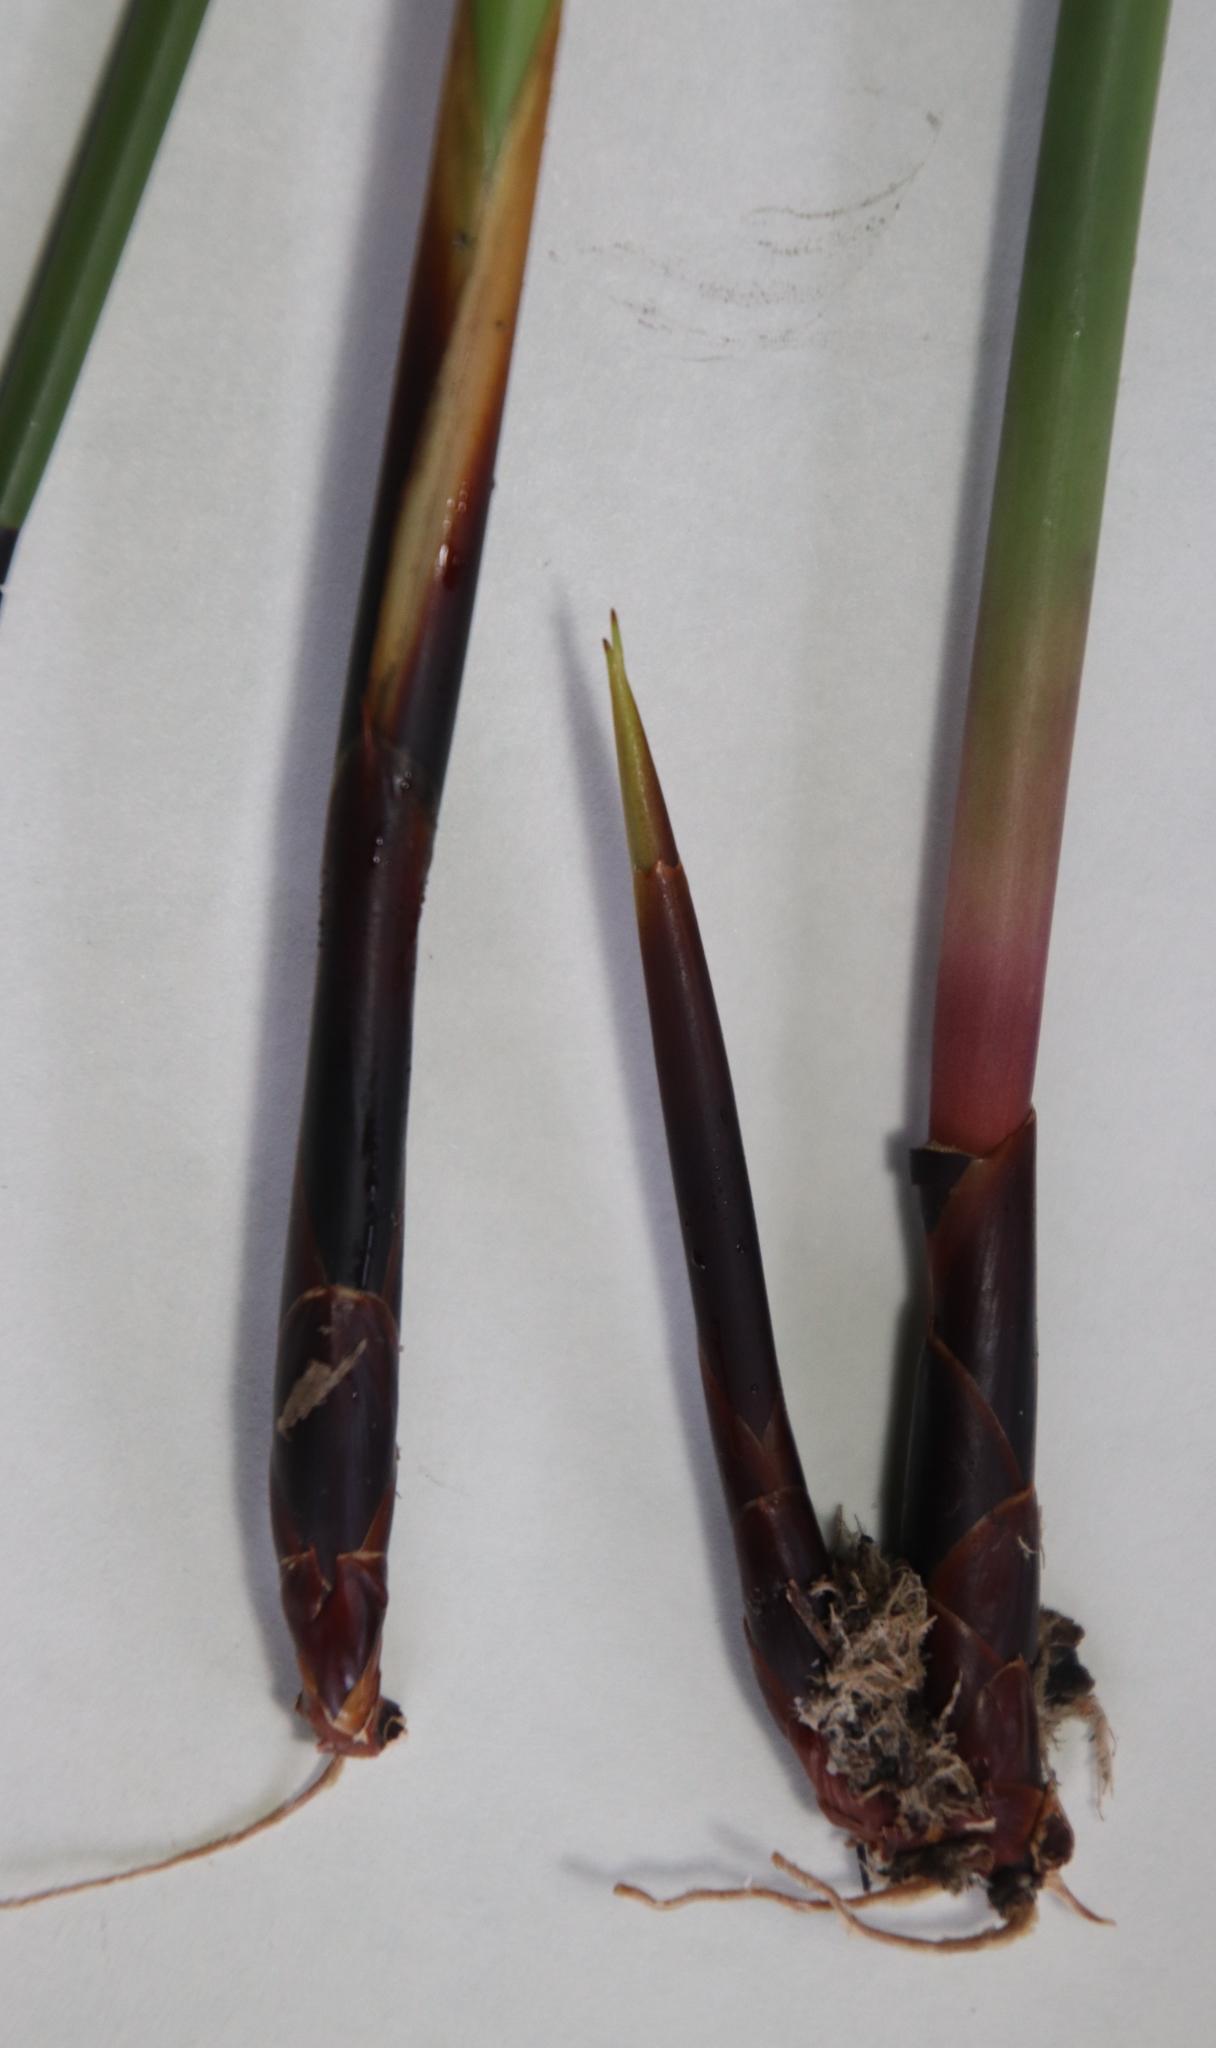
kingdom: Plantae
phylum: Tracheophyta
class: Liliopsida
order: Poales
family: Restionaceae
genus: Elegia
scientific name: Elegia cuspidata
